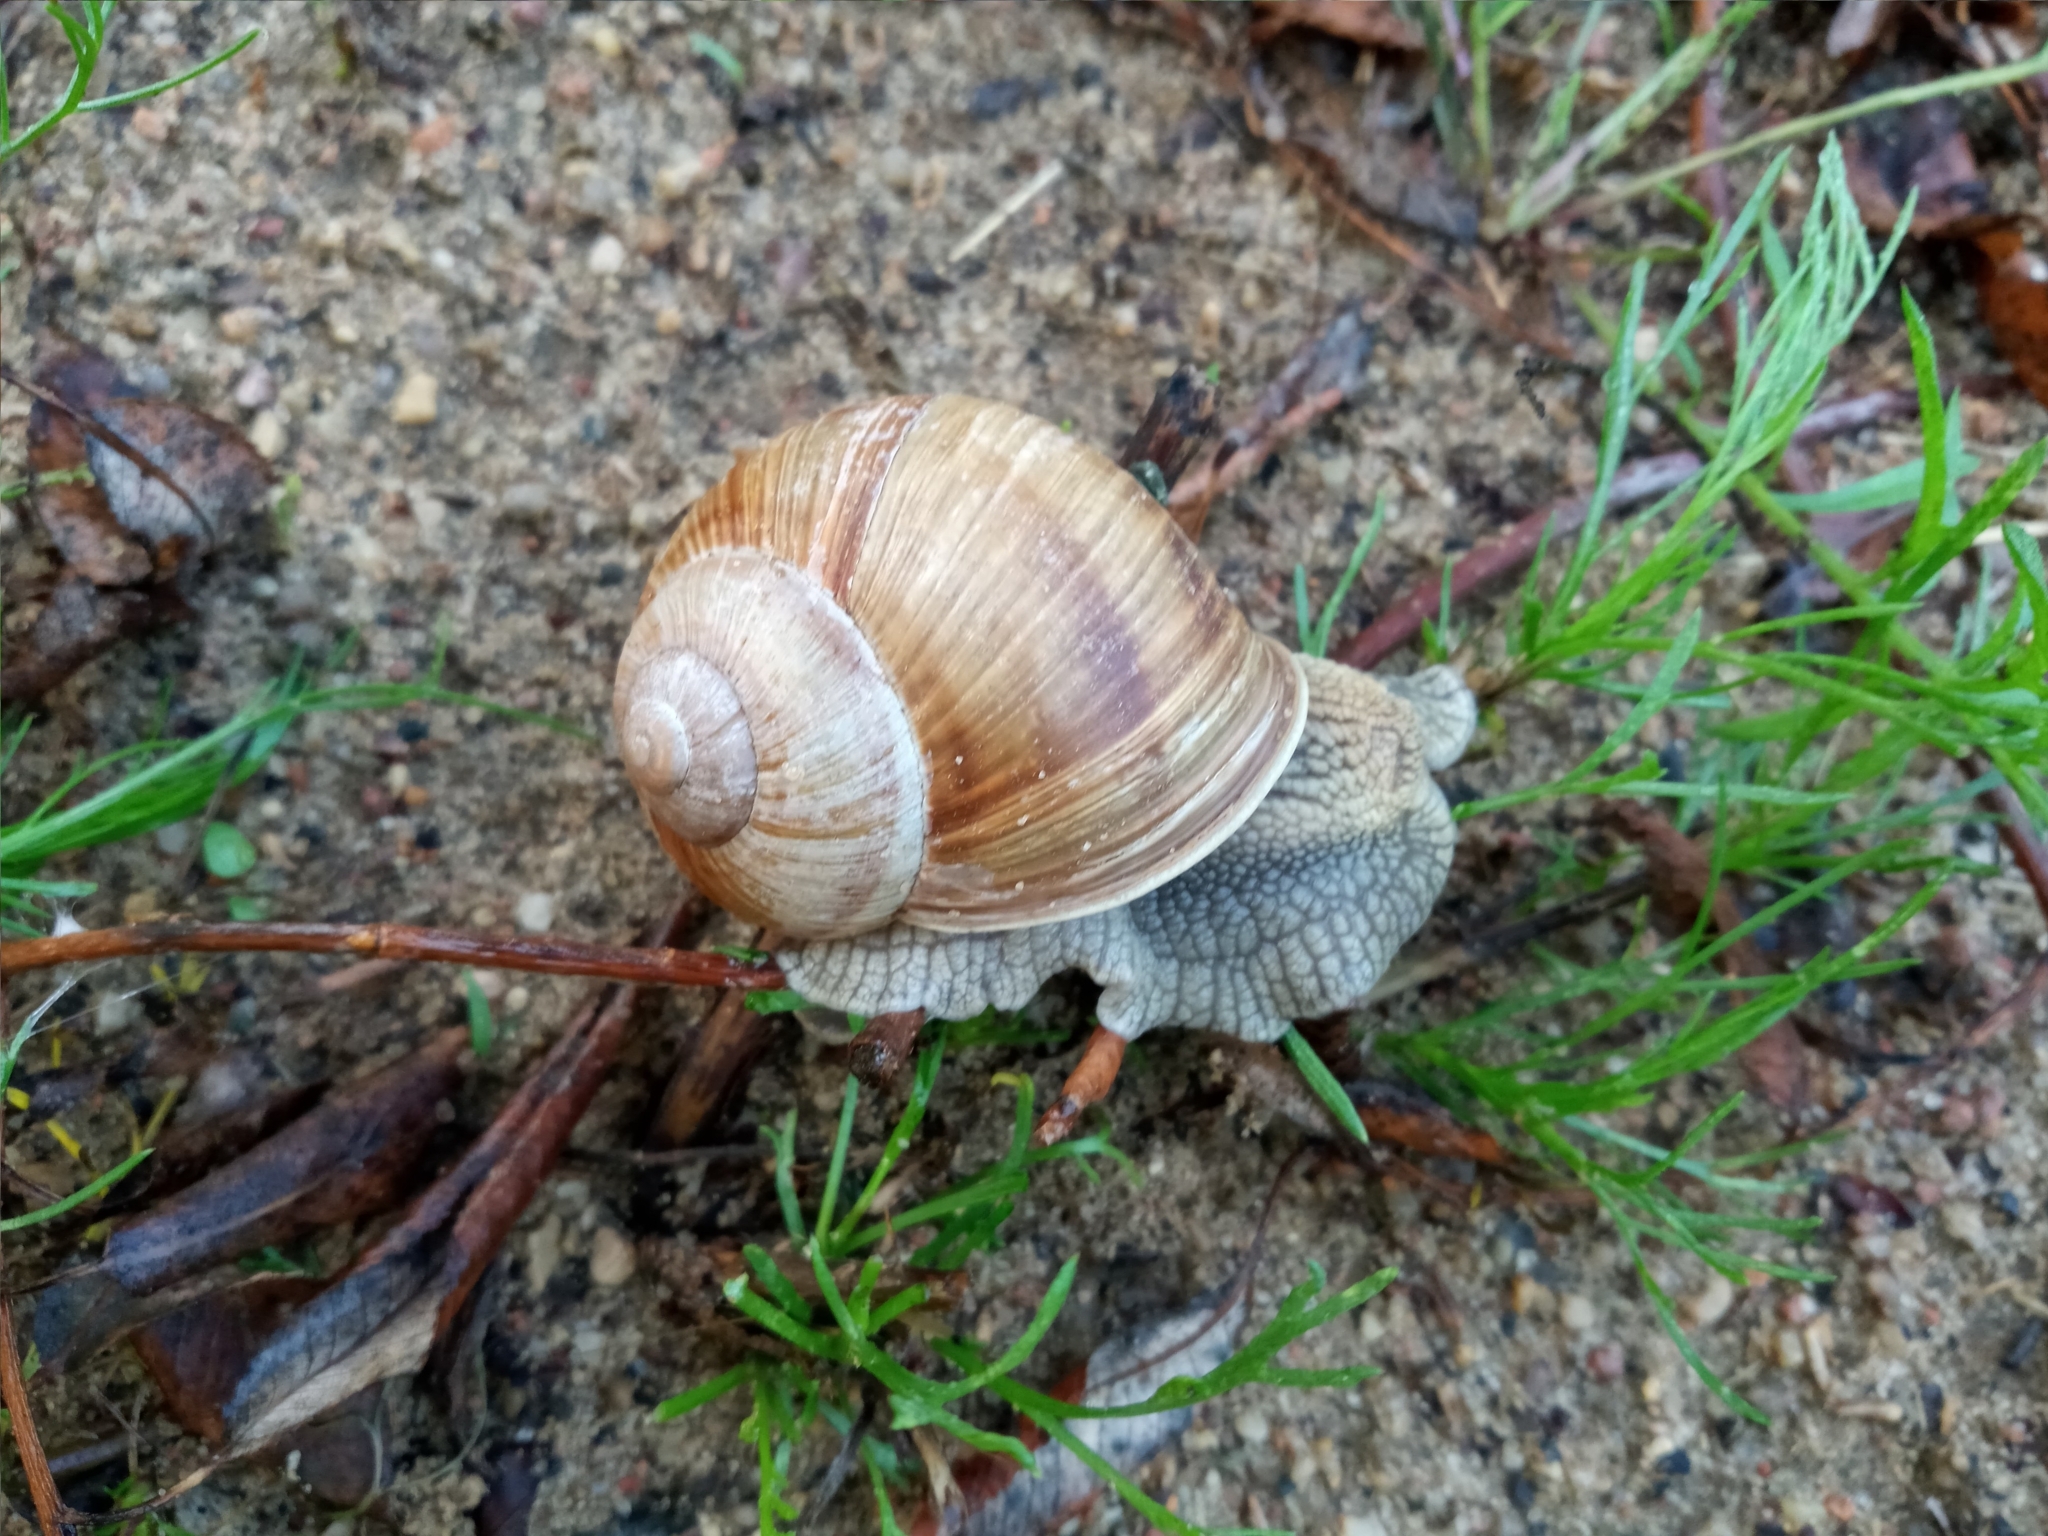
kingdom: Animalia
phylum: Mollusca
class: Gastropoda
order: Stylommatophora
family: Helicidae
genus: Helix
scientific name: Helix pomatia
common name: Roman snail
